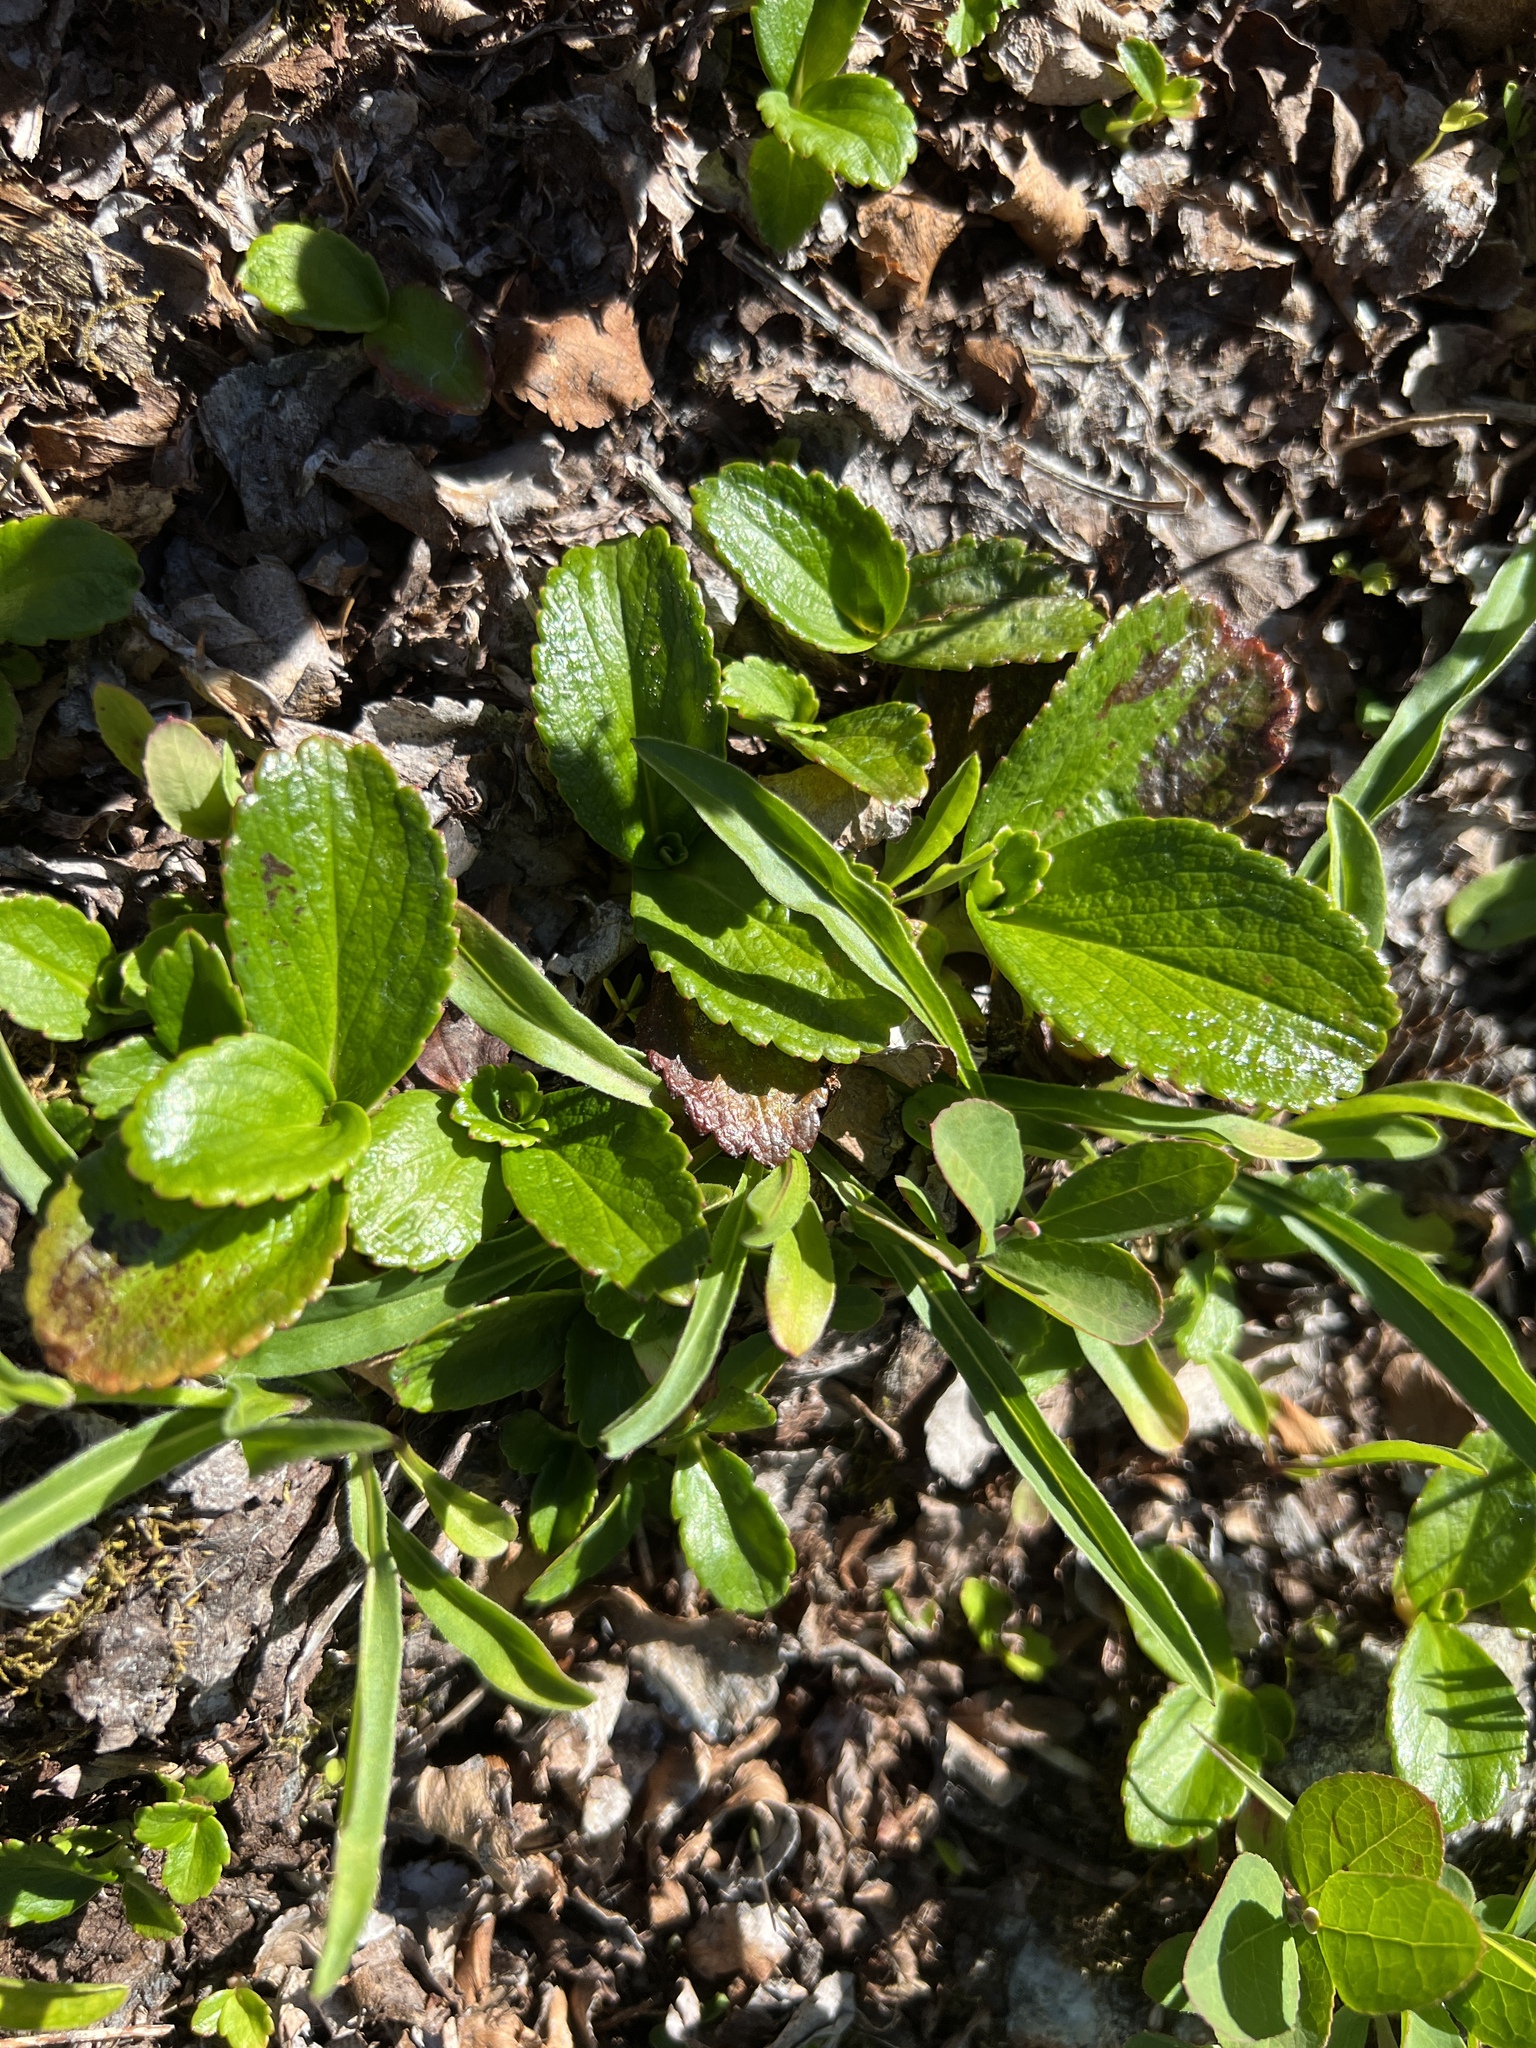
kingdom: Plantae
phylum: Tracheophyta
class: Magnoliopsida
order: Saxifragales
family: Saxifragaceae
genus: Leptarrhena
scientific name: Leptarrhena pyrolifolia
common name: Leatherleaf-saxifrage
